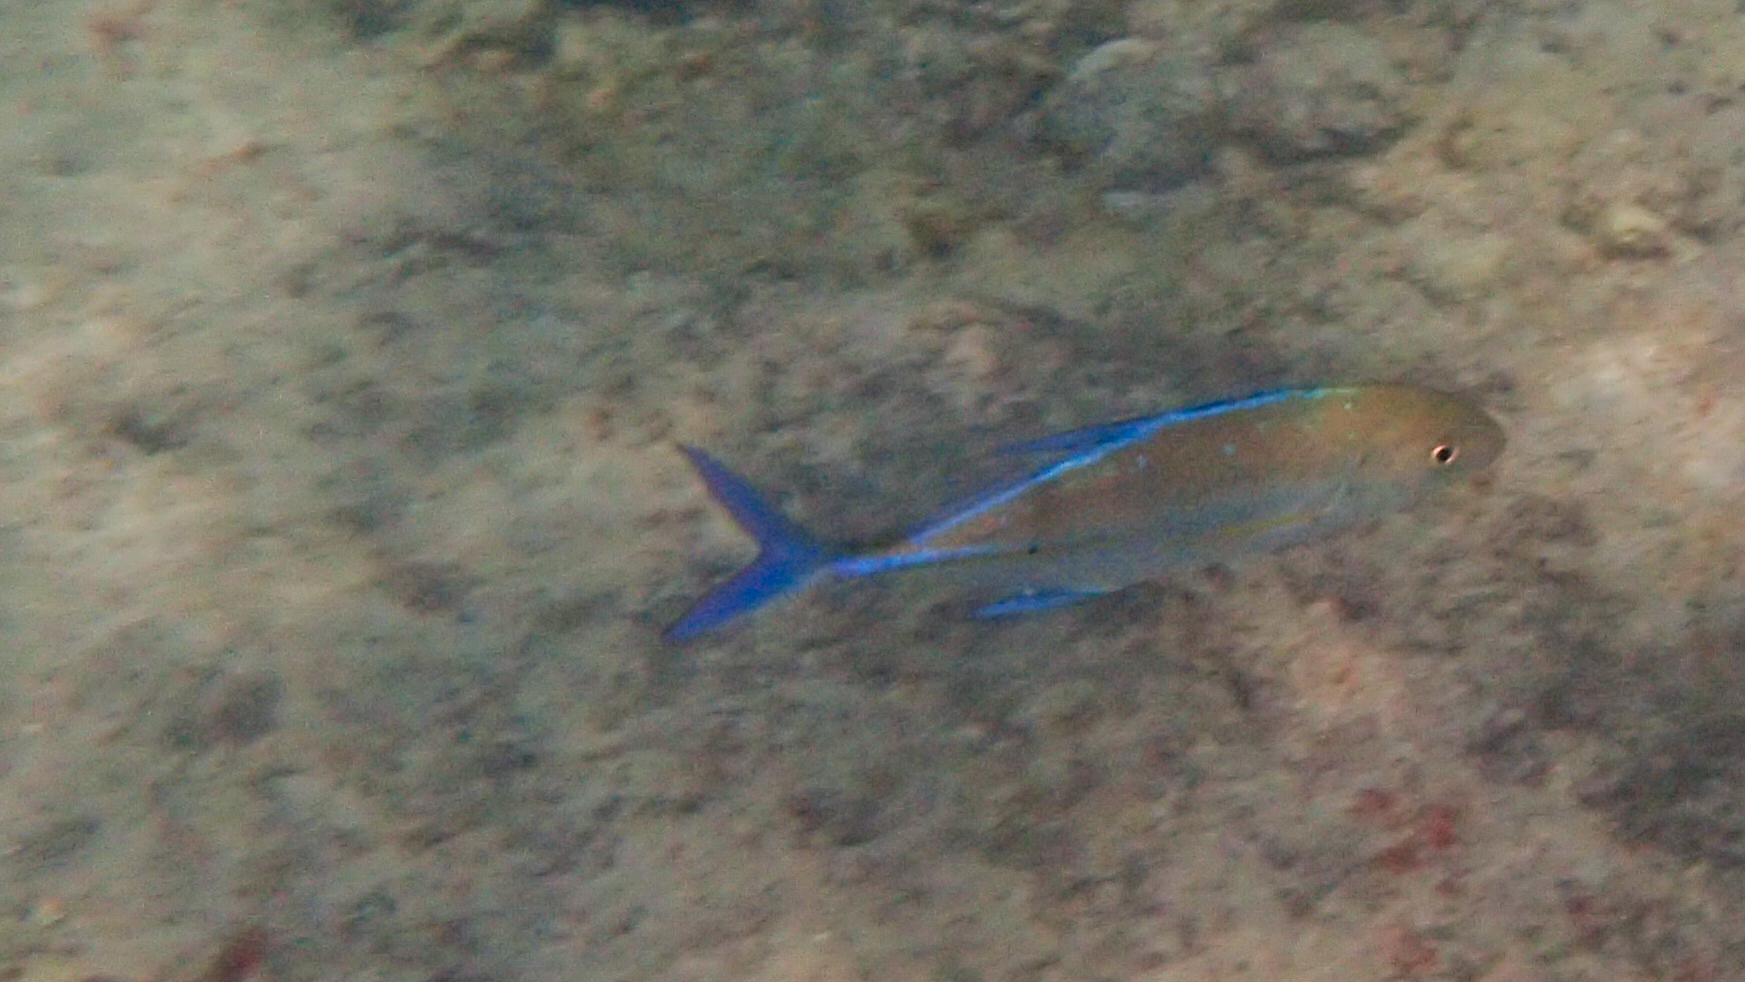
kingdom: Animalia
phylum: Chordata
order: Perciformes
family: Carangidae
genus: Caranx
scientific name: Caranx melampygus
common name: Bluefin trevally
